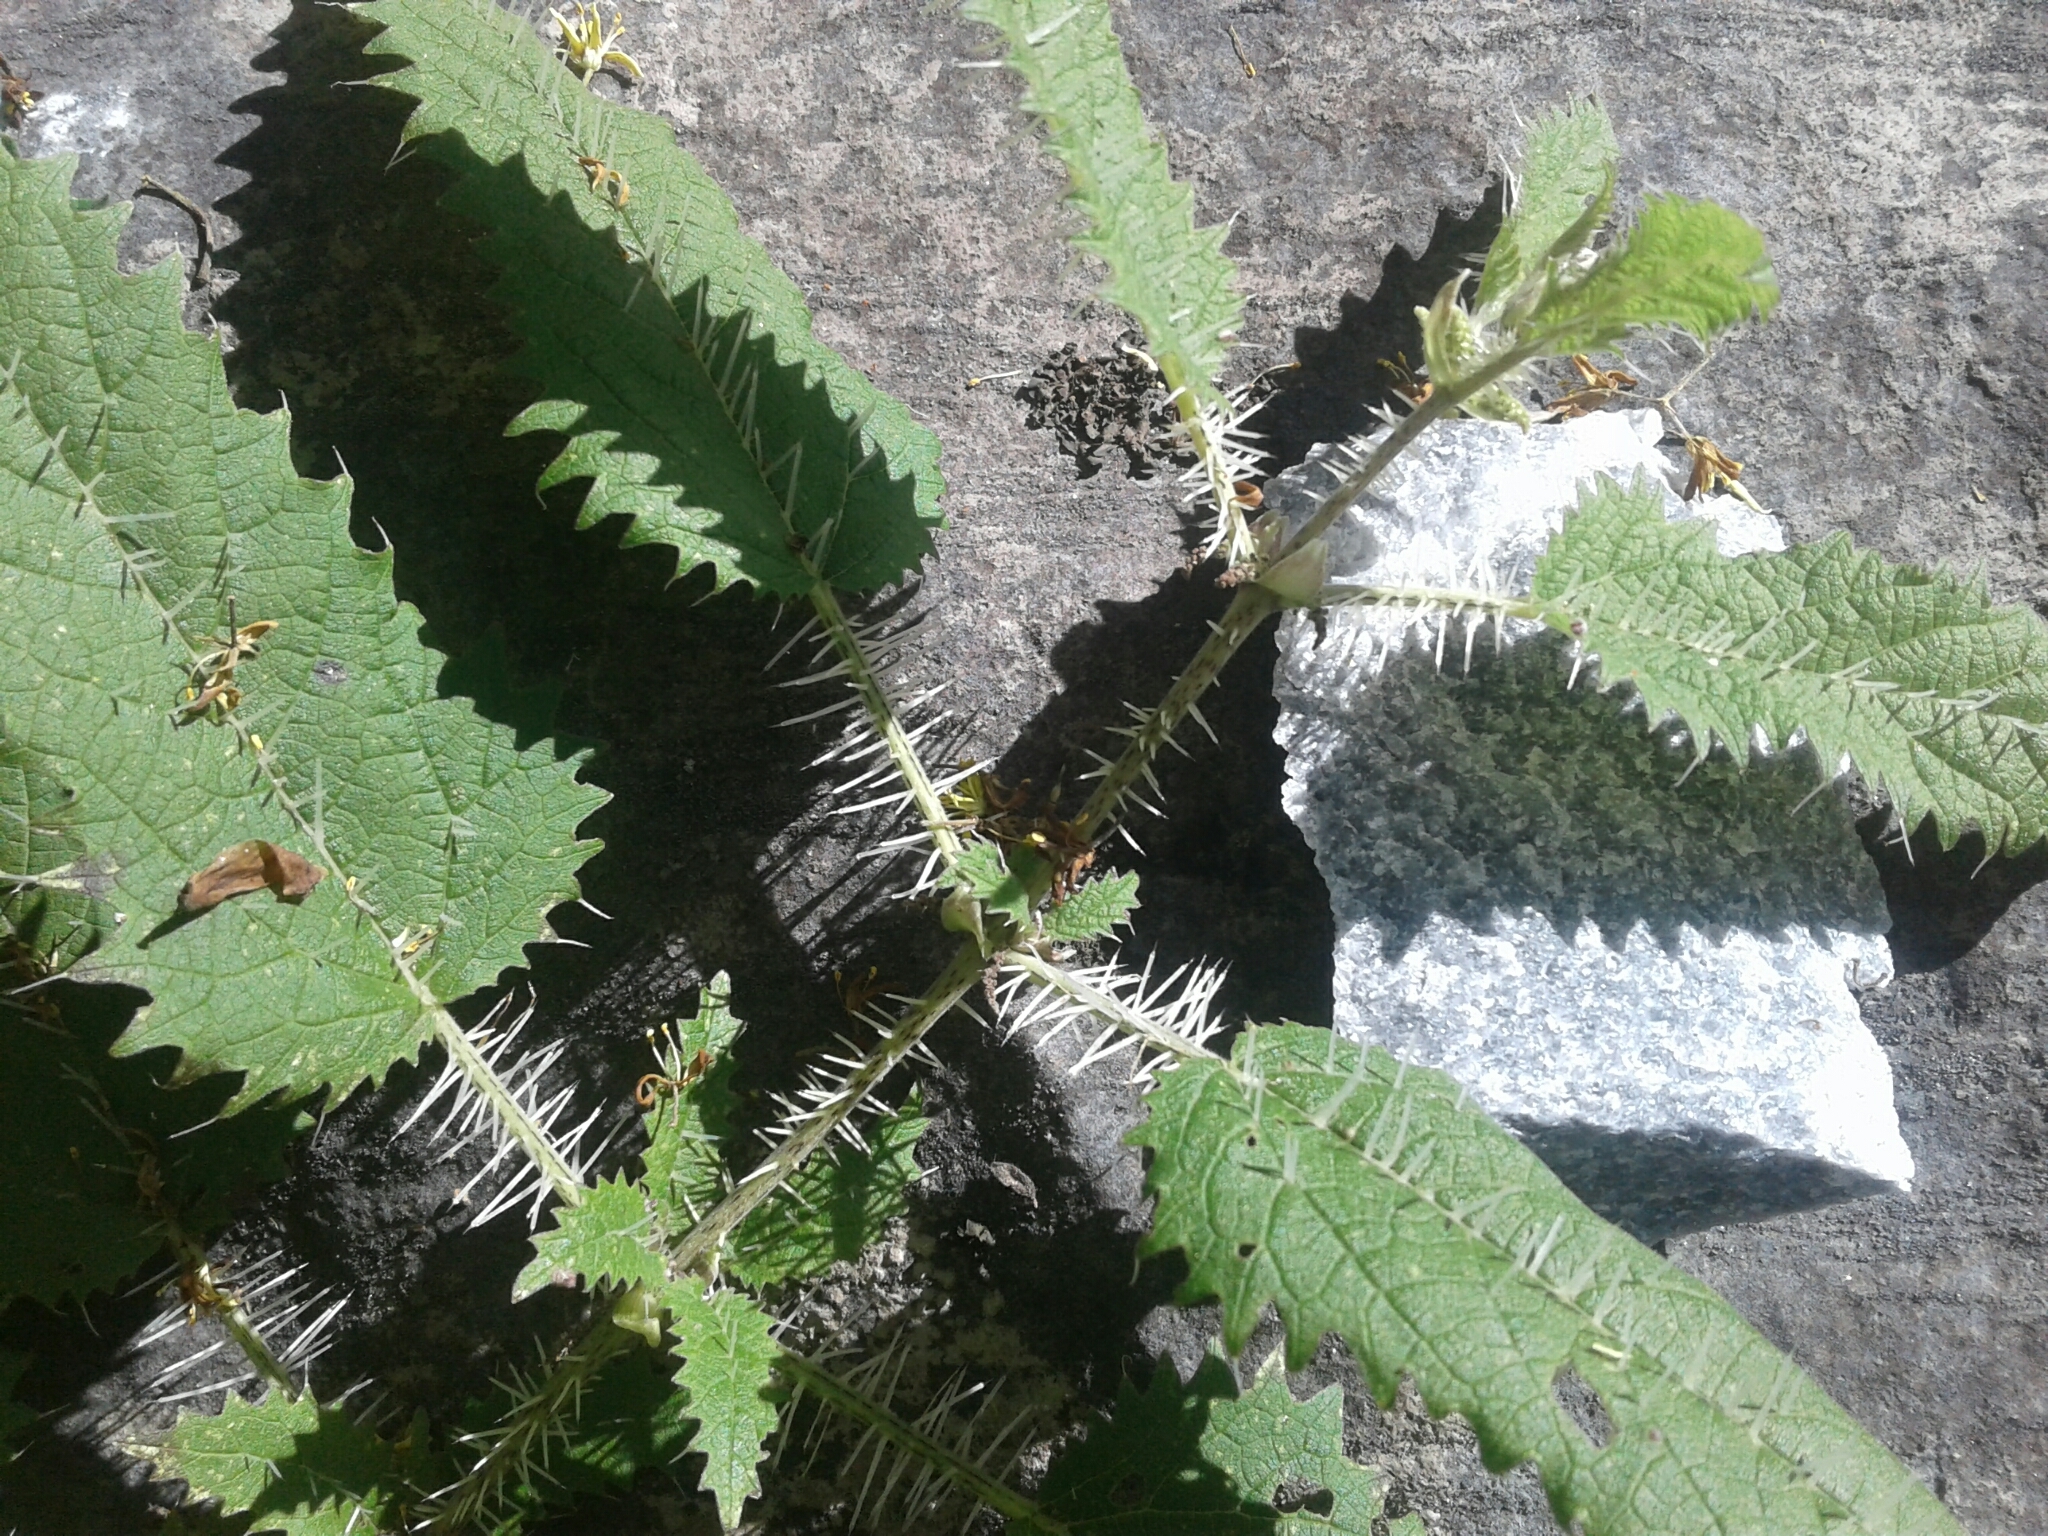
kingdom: Plantae
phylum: Tracheophyta
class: Magnoliopsida
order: Rosales
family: Urticaceae
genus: Urtica
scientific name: Urtica ferox
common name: Tree nettle
